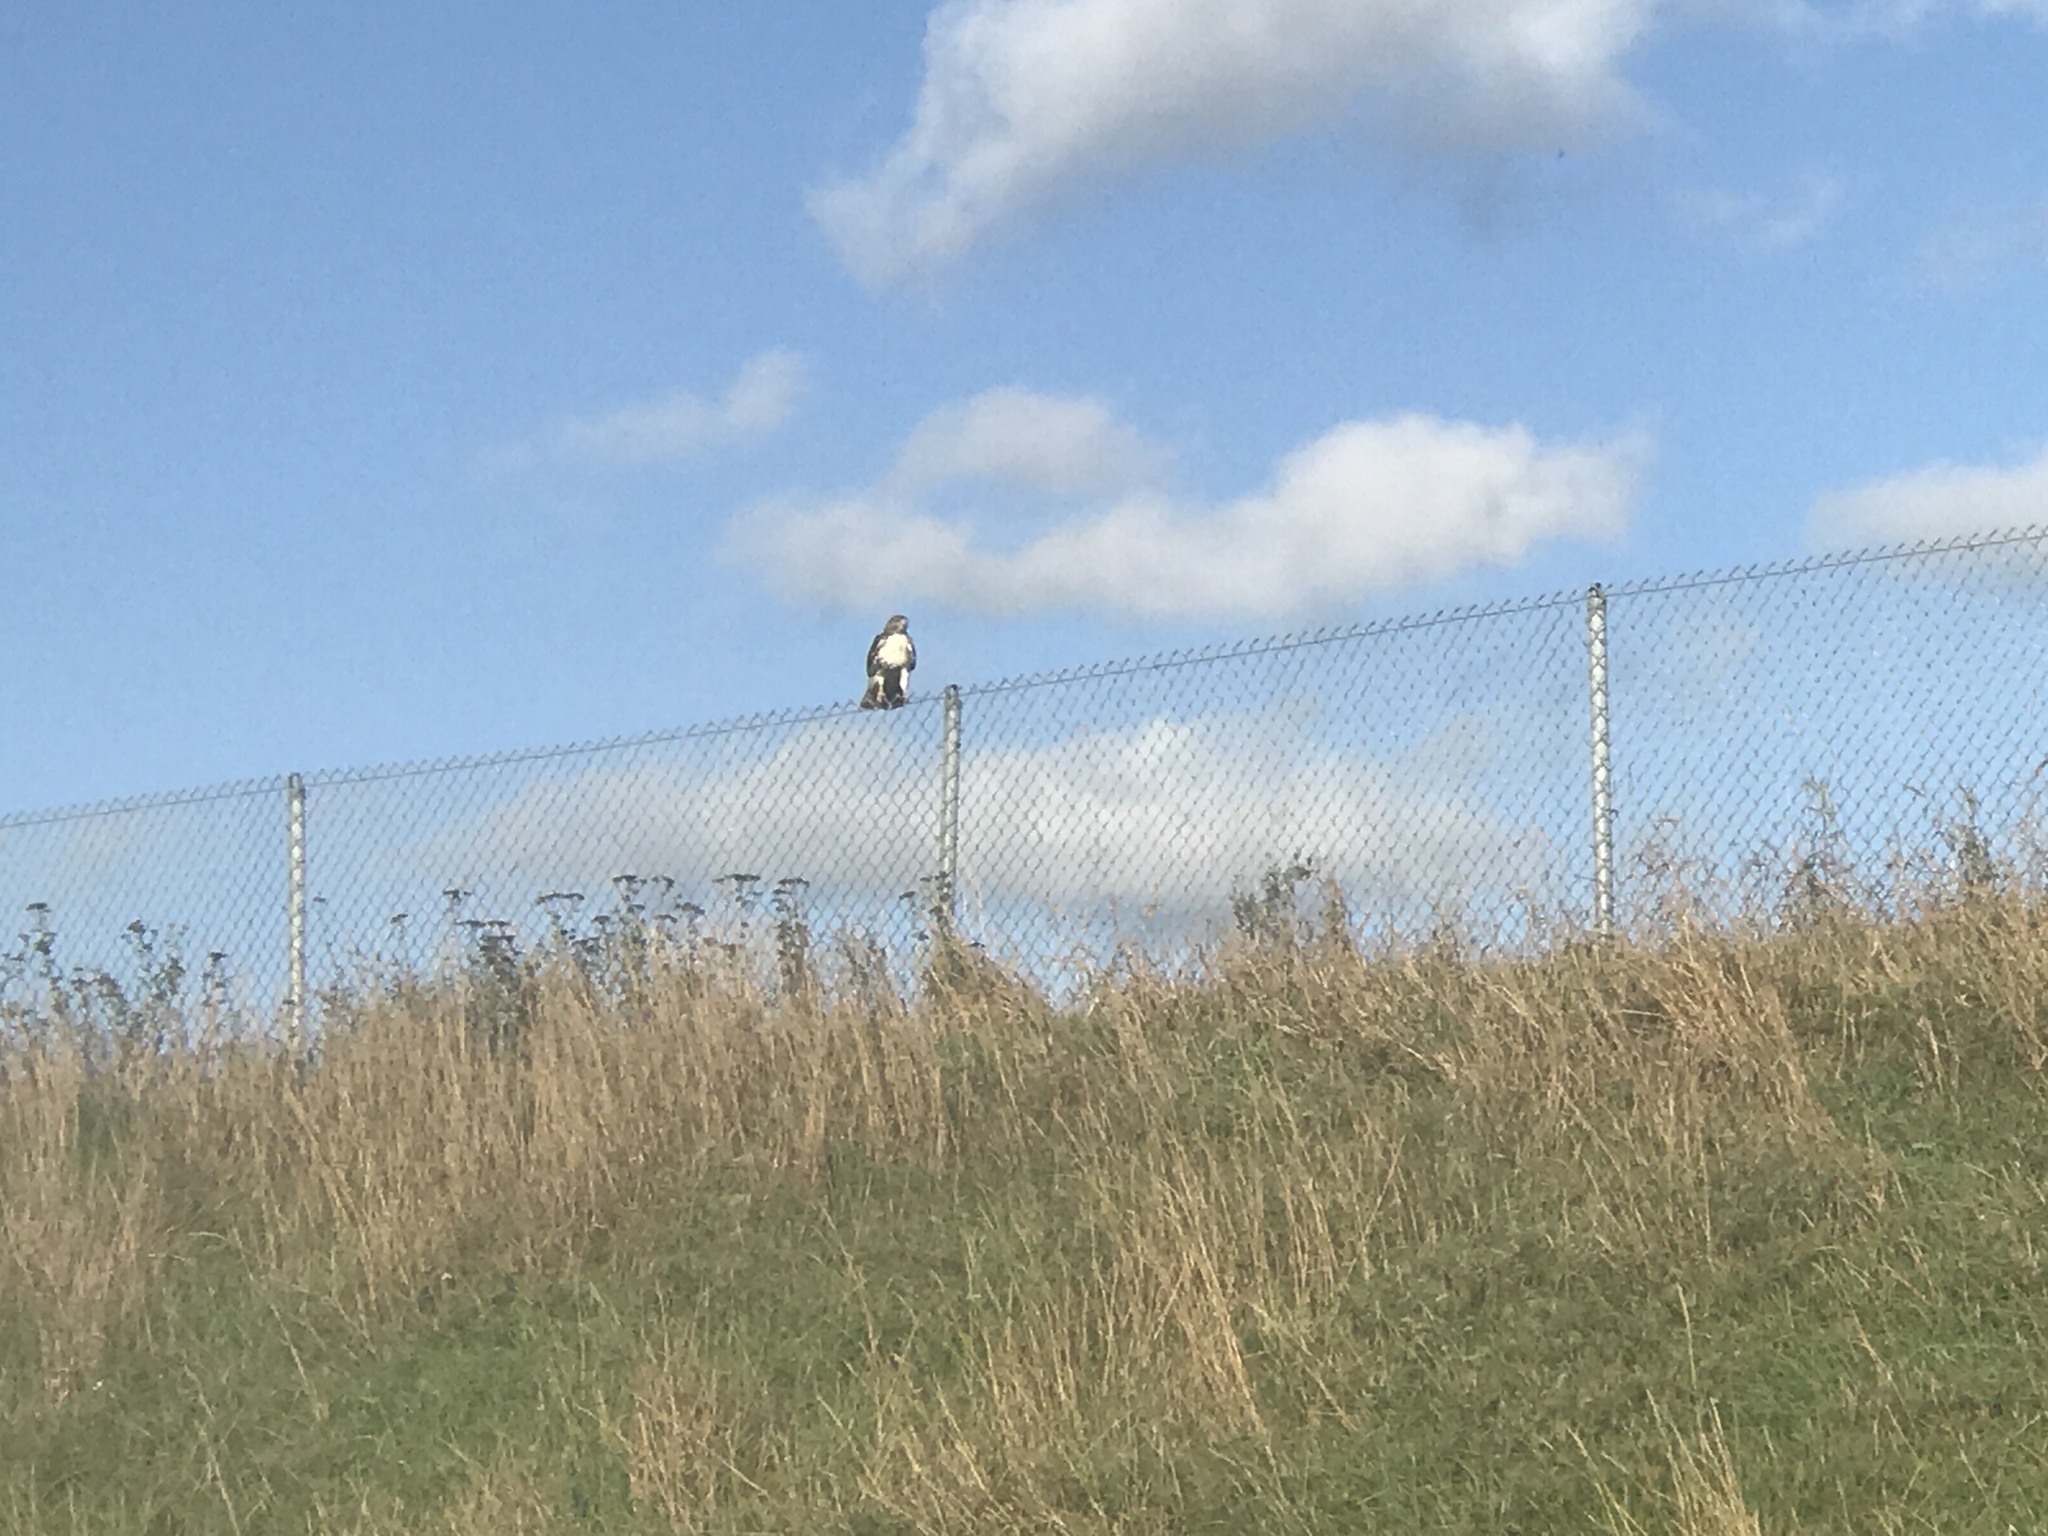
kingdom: Animalia
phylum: Chordata
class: Aves
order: Accipitriformes
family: Accipitridae
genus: Buteo
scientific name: Buteo jamaicensis
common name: Red-tailed hawk
